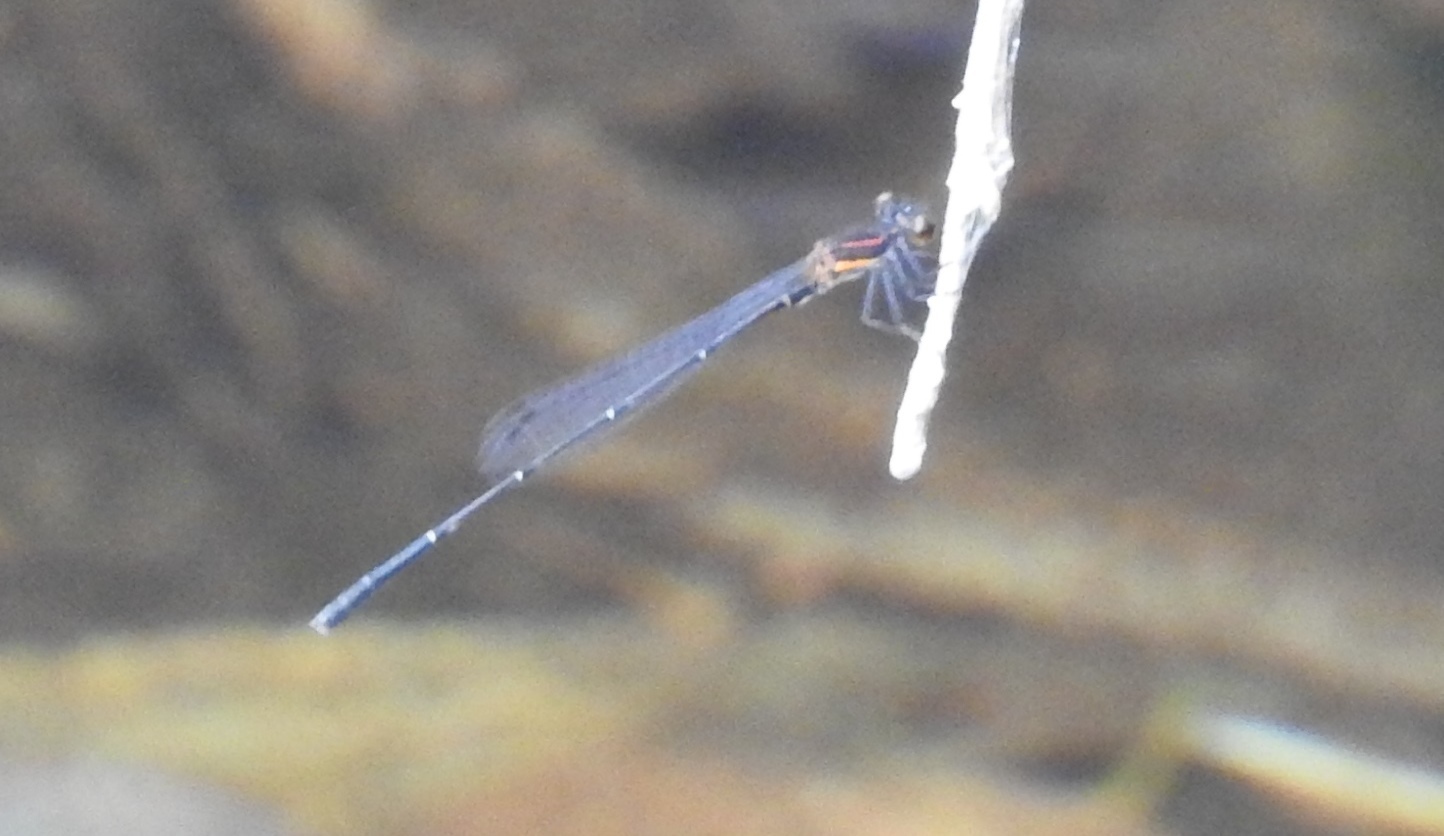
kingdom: Animalia
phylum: Arthropoda
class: Insecta
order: Odonata
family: Platycnemididae
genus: Prodasineura
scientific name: Prodasineura verticalis
